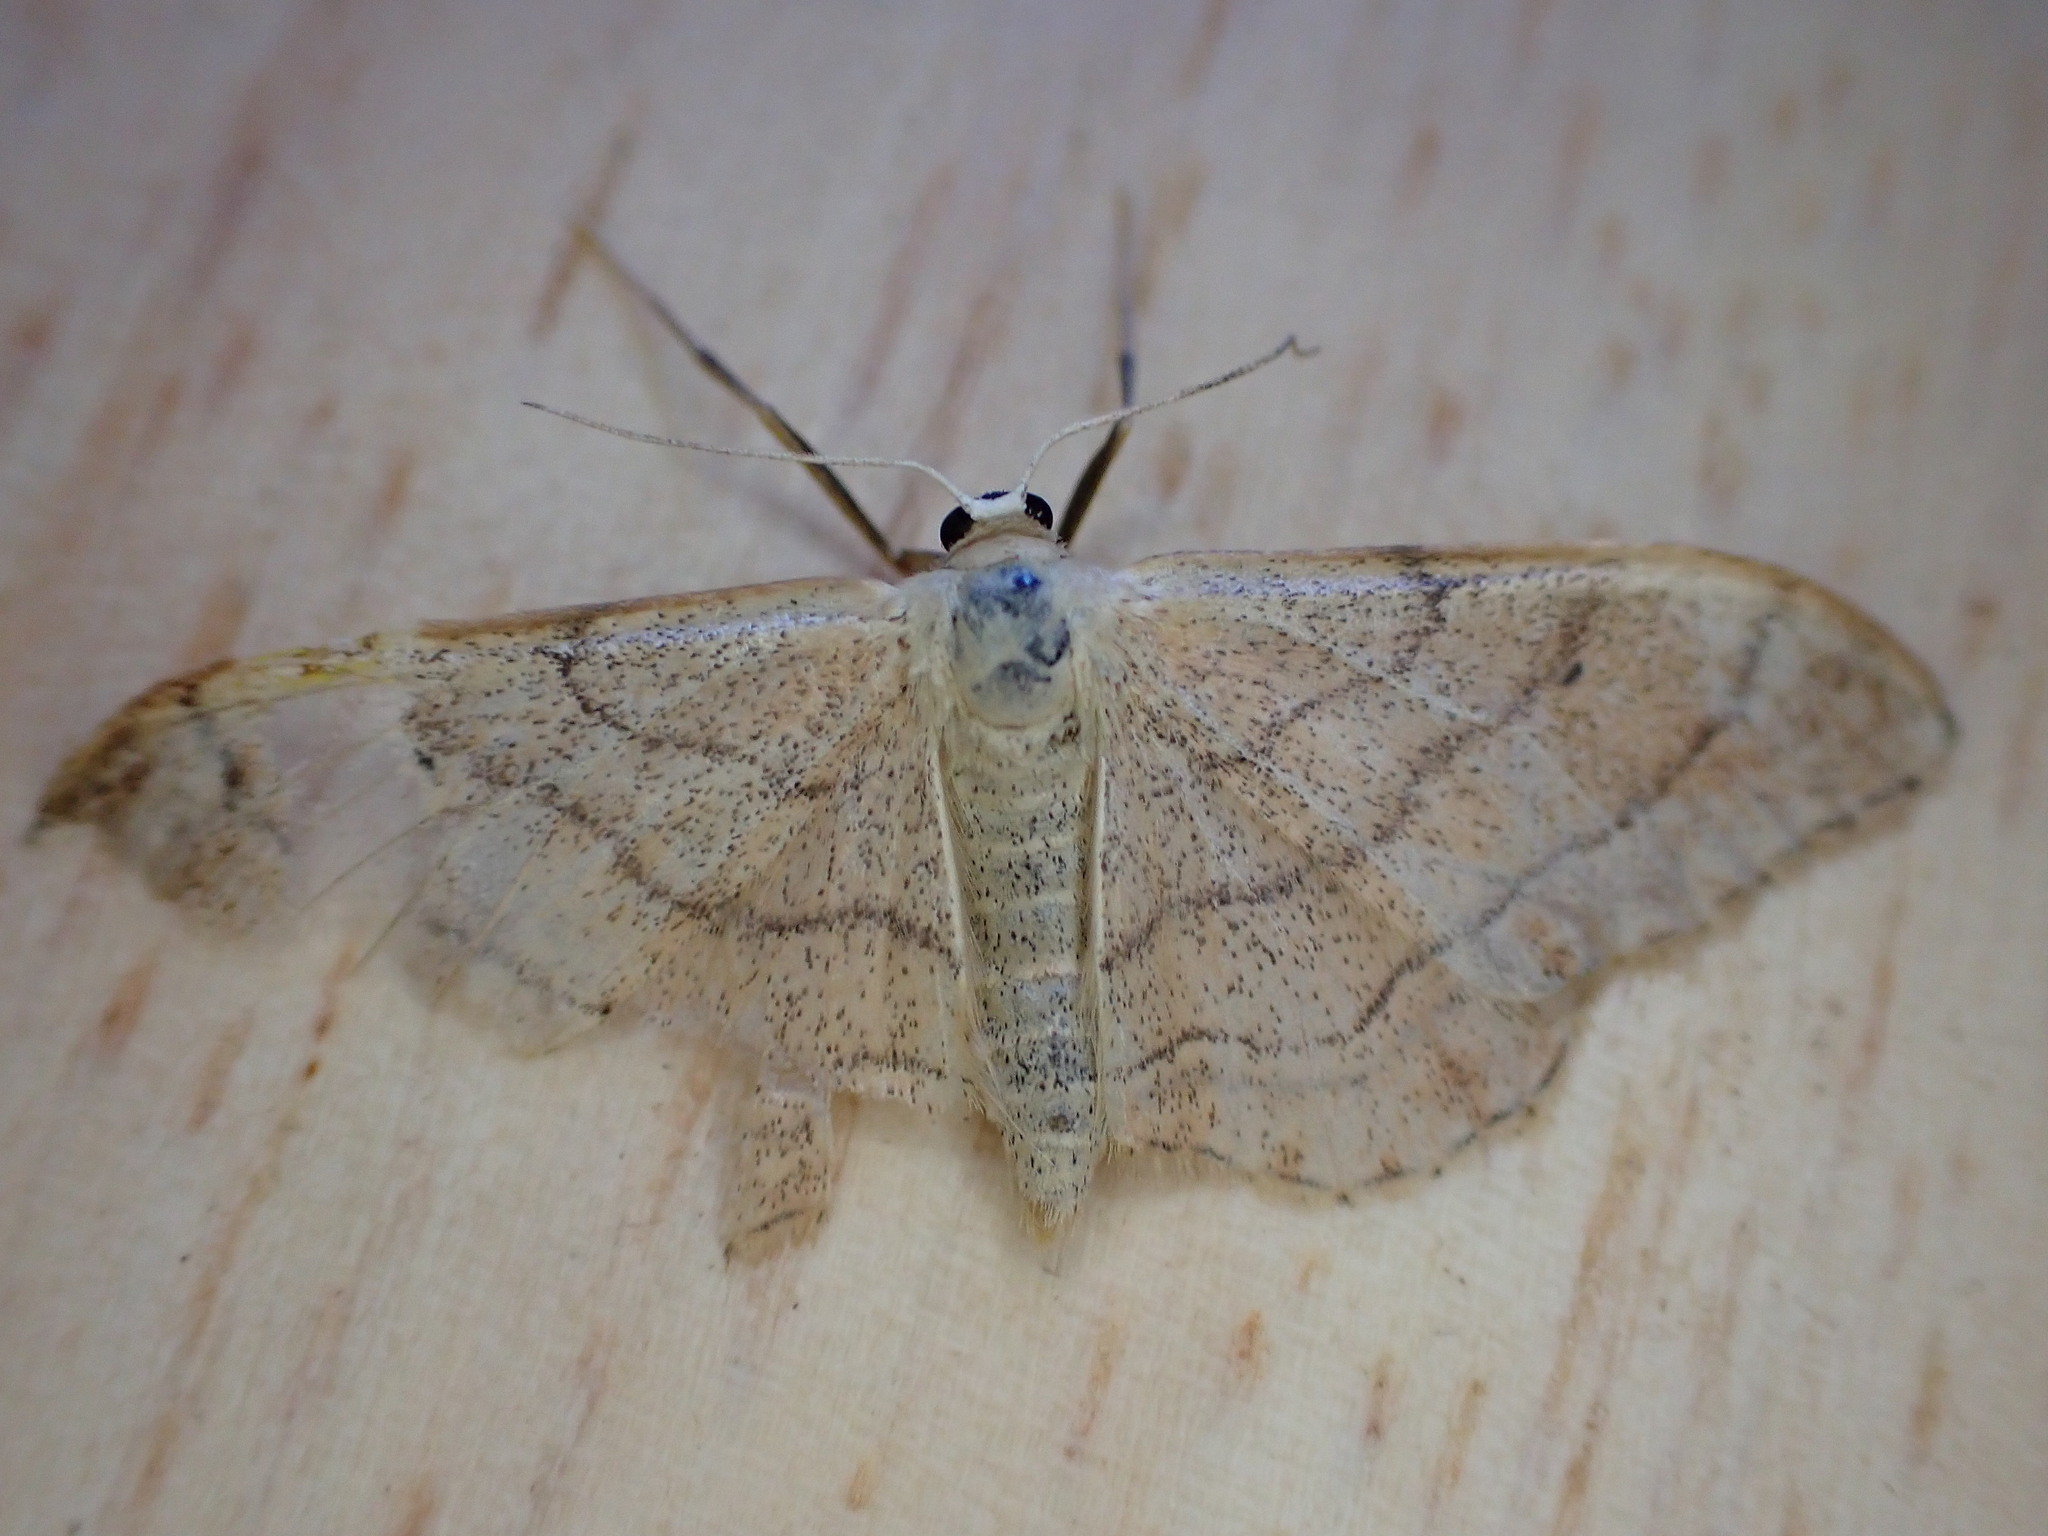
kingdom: Animalia
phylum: Arthropoda
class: Insecta
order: Lepidoptera
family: Geometridae
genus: Idaea
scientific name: Idaea aversata
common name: Riband wave
